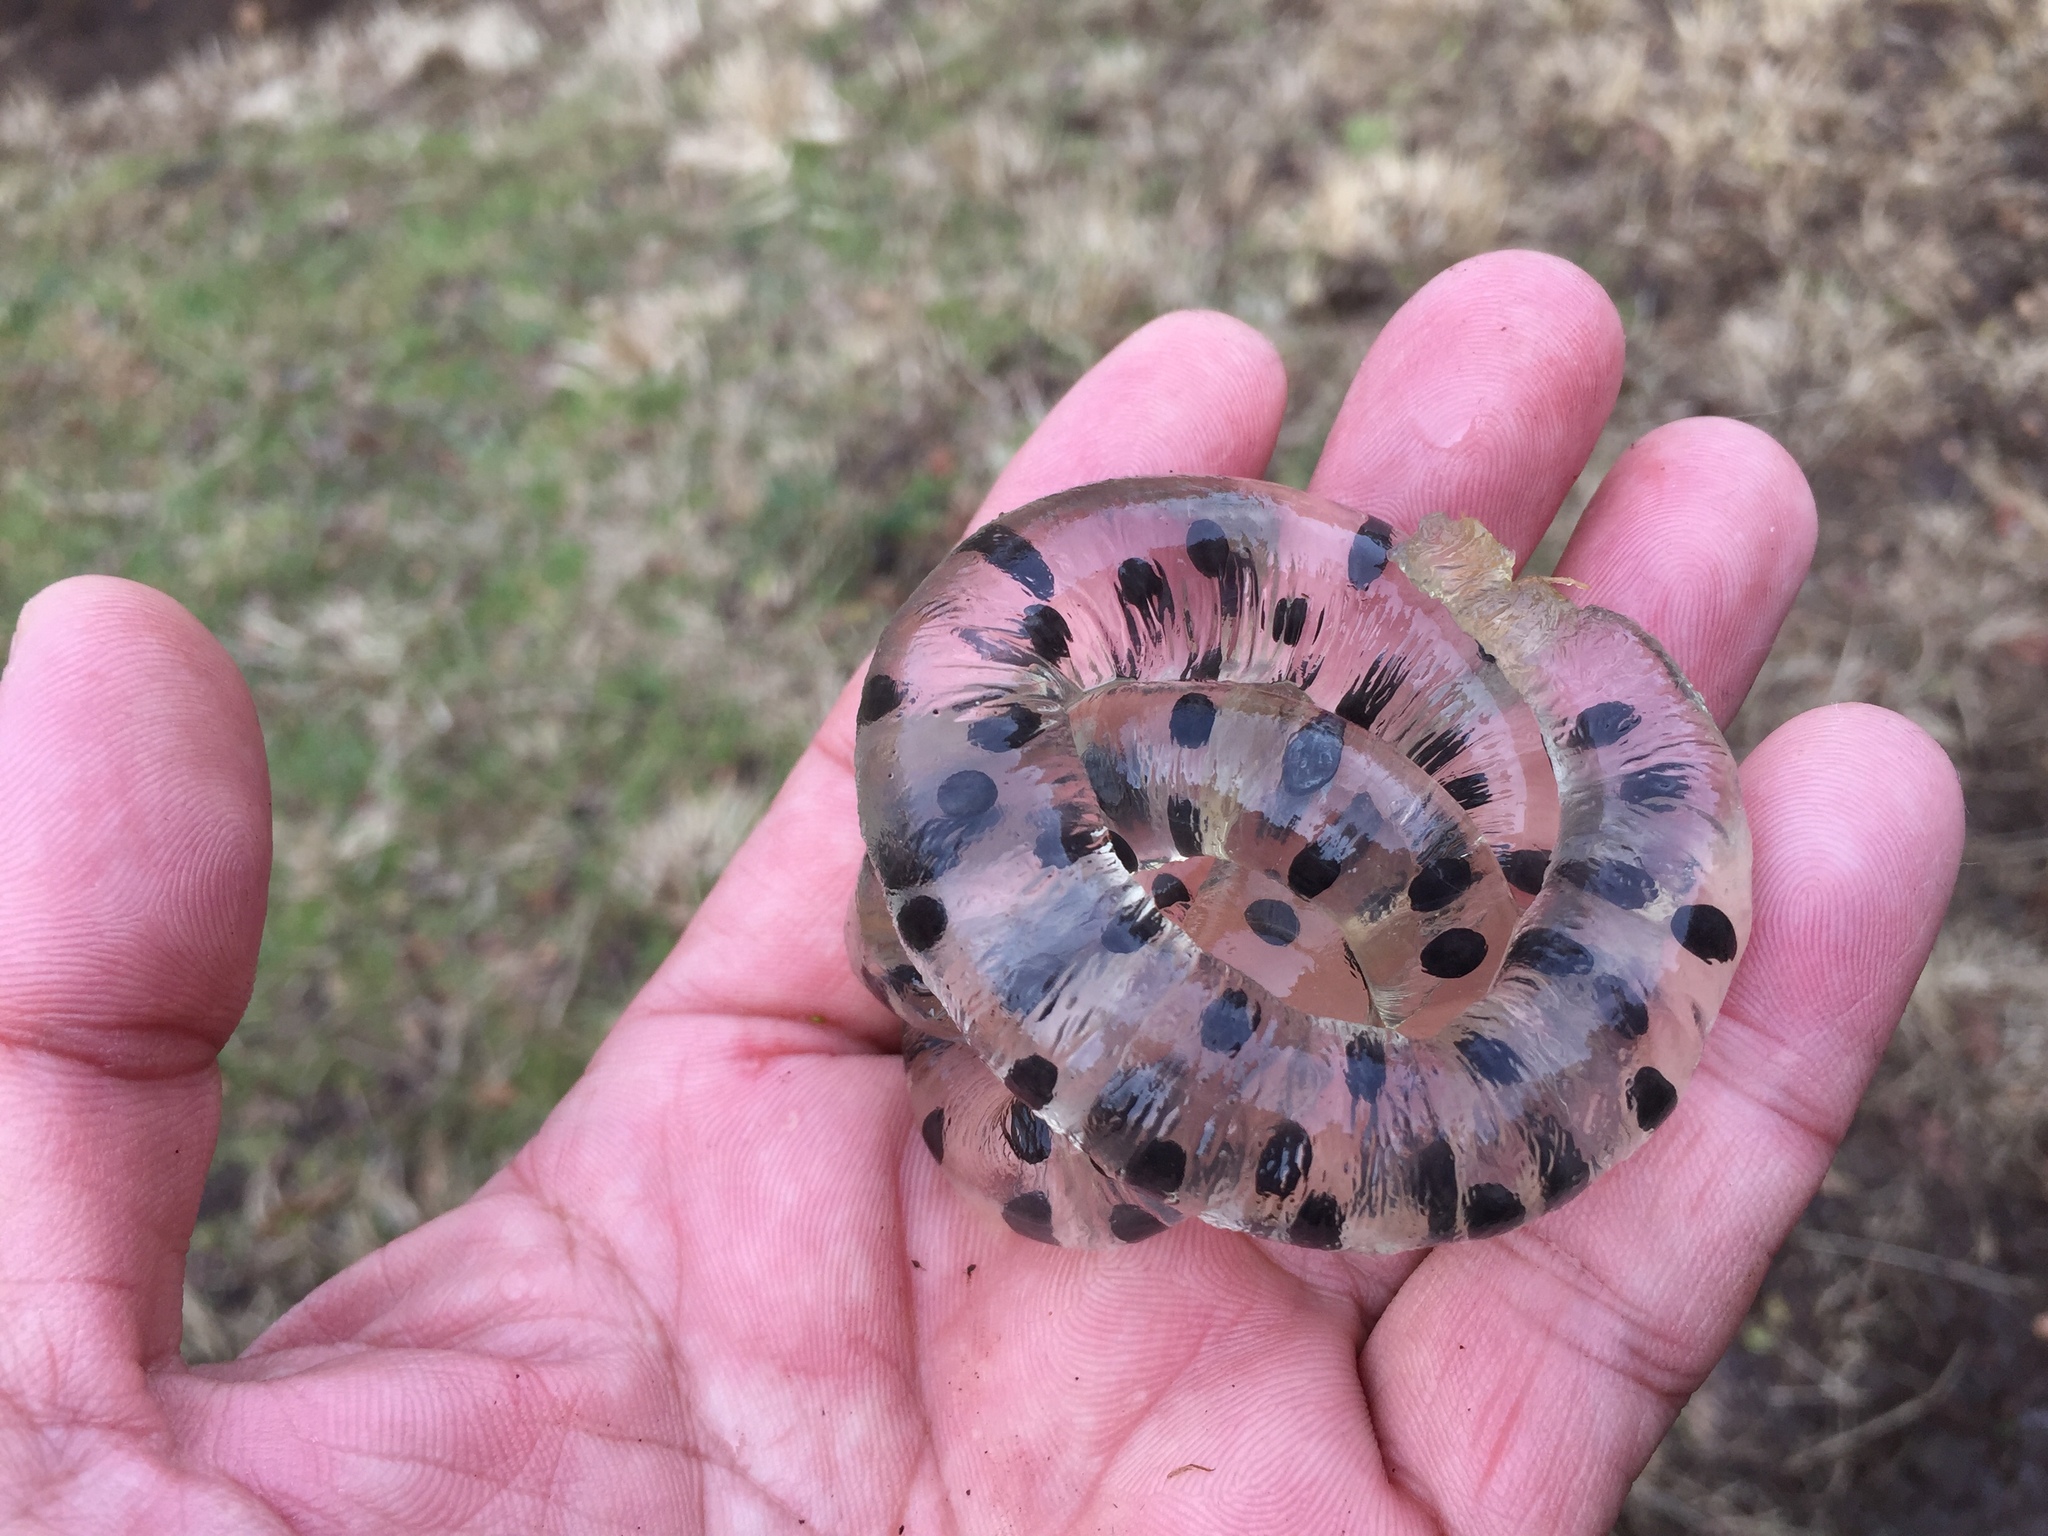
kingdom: Animalia
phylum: Chordata
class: Amphibia
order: Caudata
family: Hynobiidae
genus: Hynobius
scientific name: Hynobius quelpaertensis
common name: Cheju salamander
